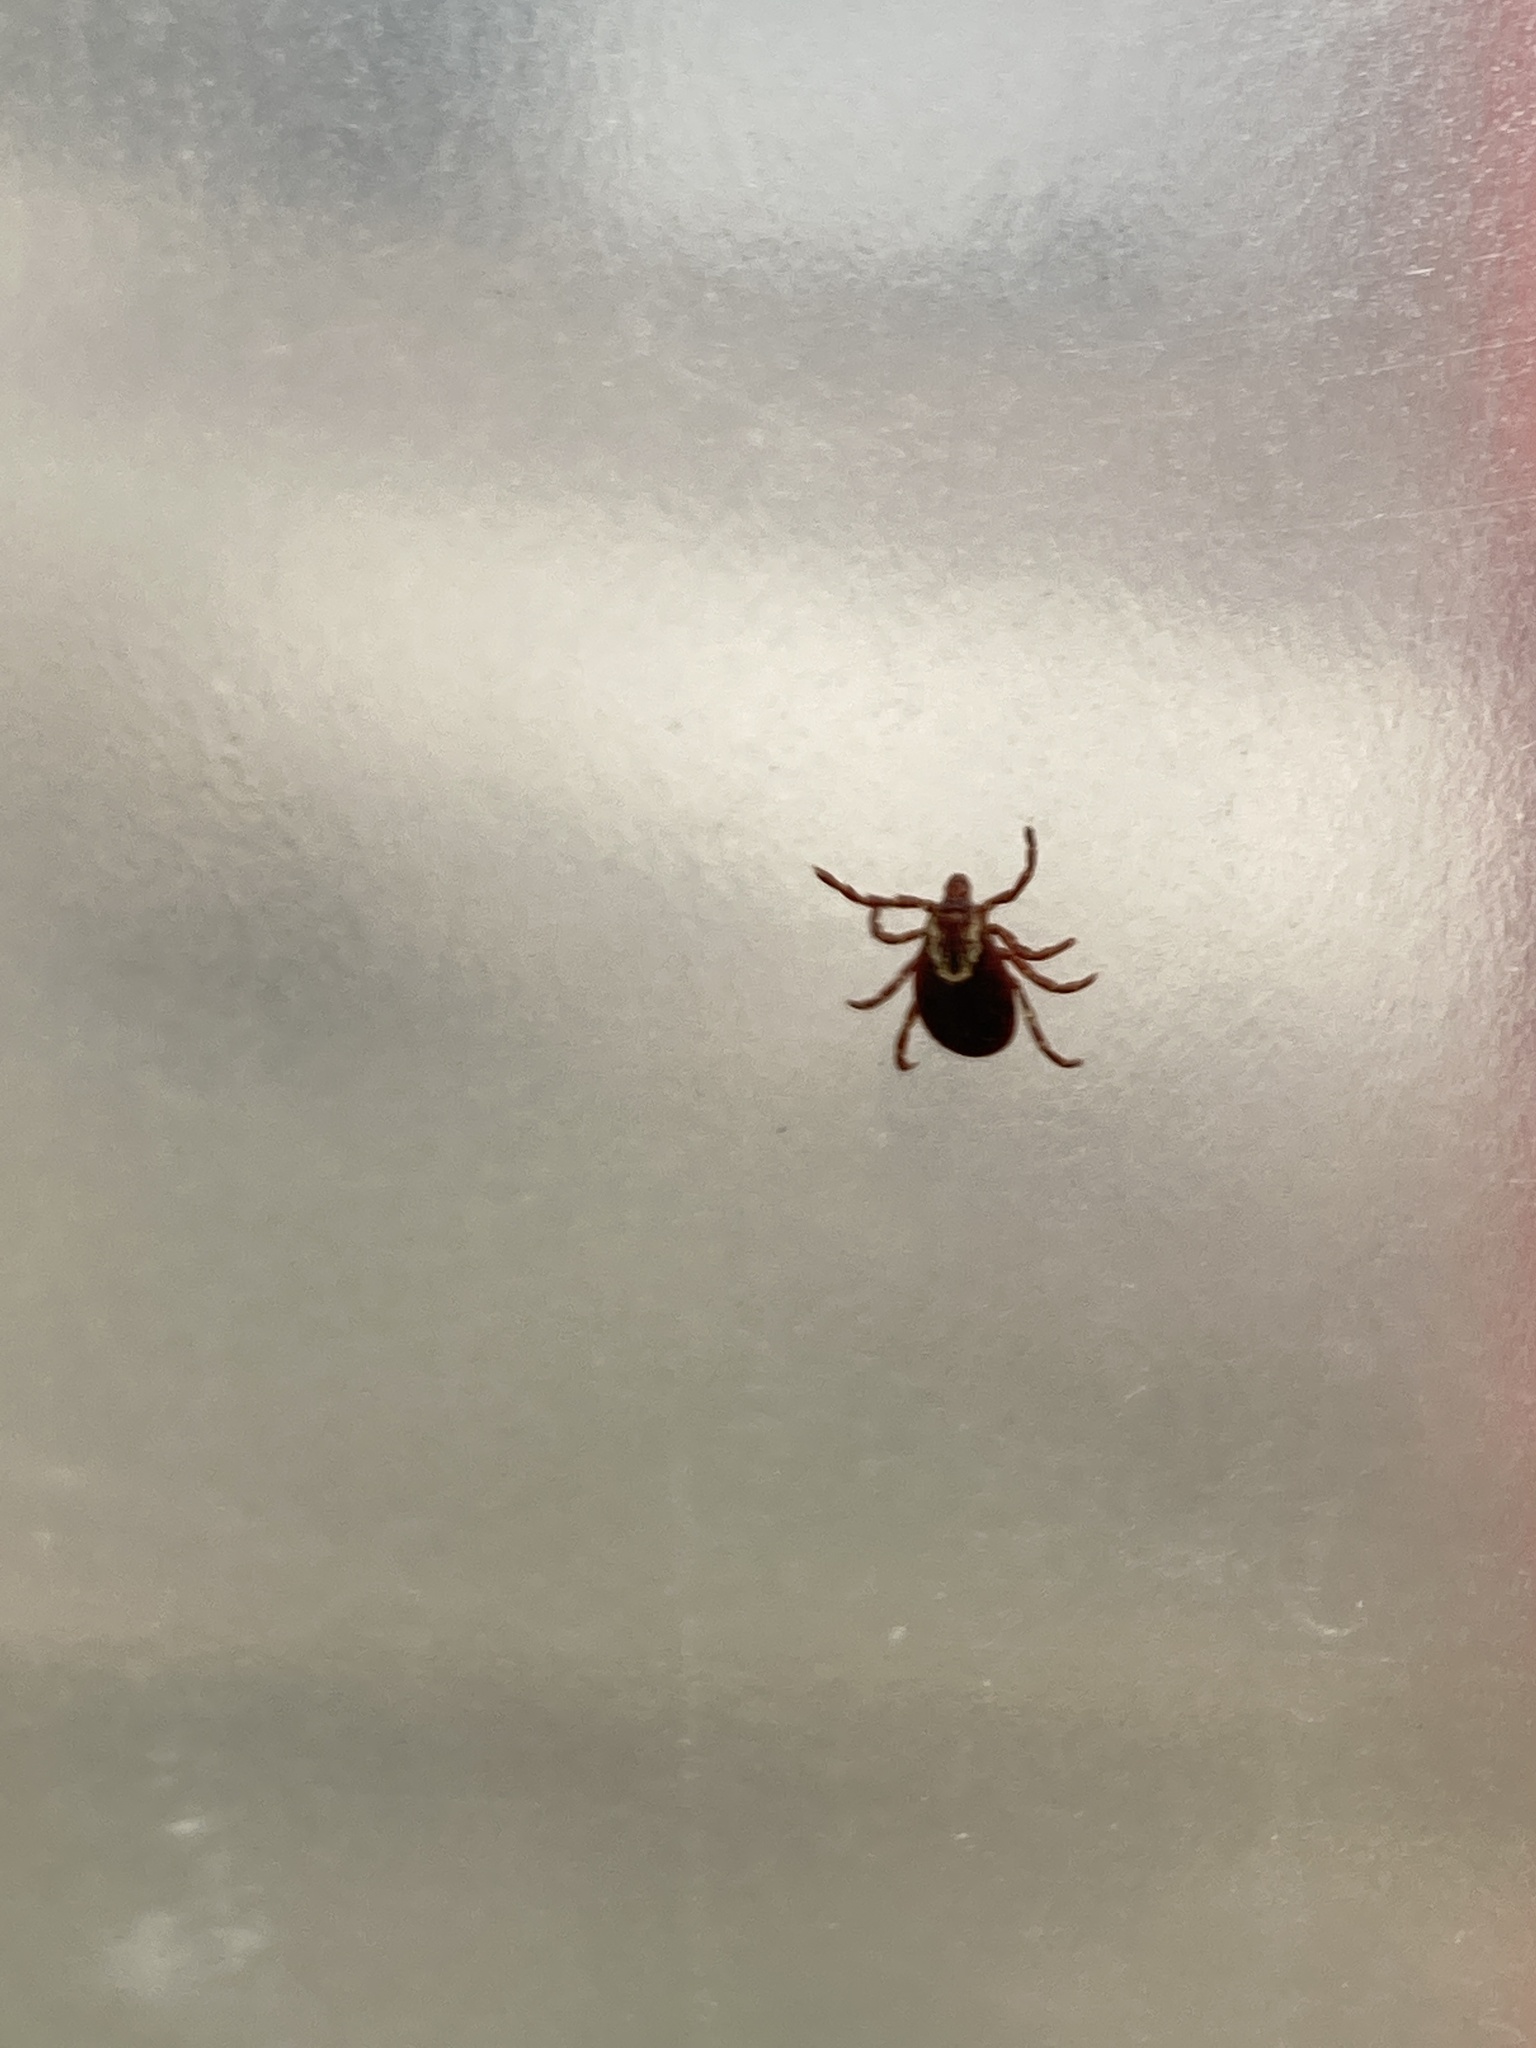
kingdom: Animalia
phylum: Arthropoda
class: Arachnida
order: Ixodida
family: Ixodidae
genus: Dermacentor
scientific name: Dermacentor variabilis
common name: American dog tick
